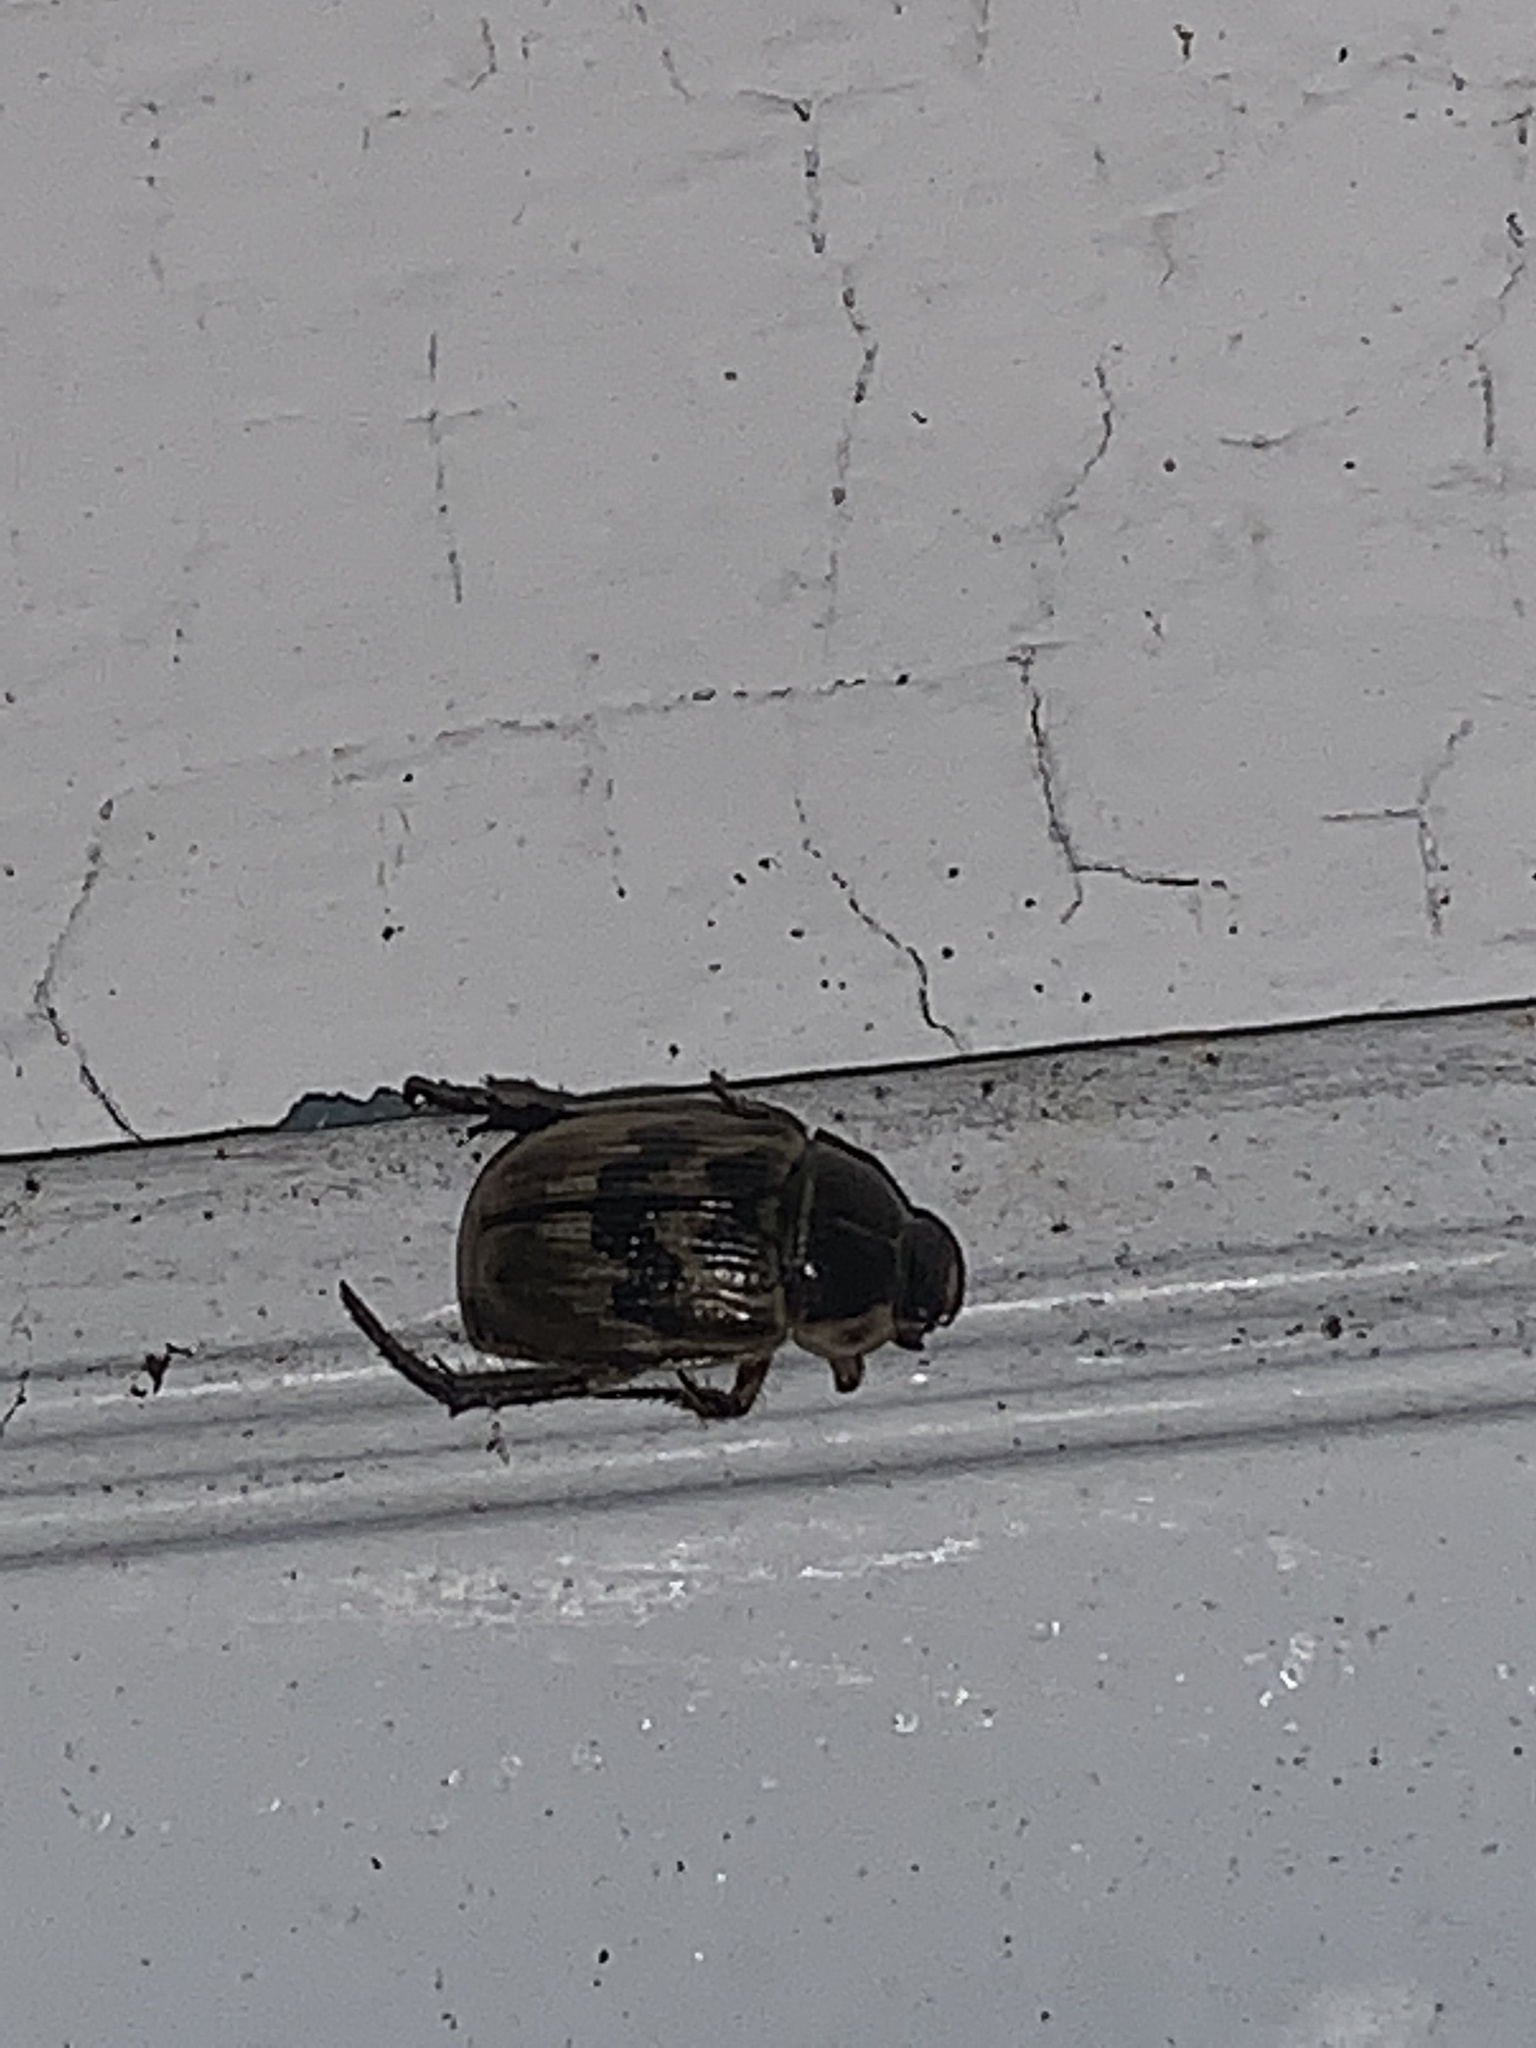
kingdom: Animalia
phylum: Arthropoda
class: Insecta
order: Coleoptera
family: Scarabaeidae
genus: Exomala
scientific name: Exomala orientalis
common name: Oriental beetle
